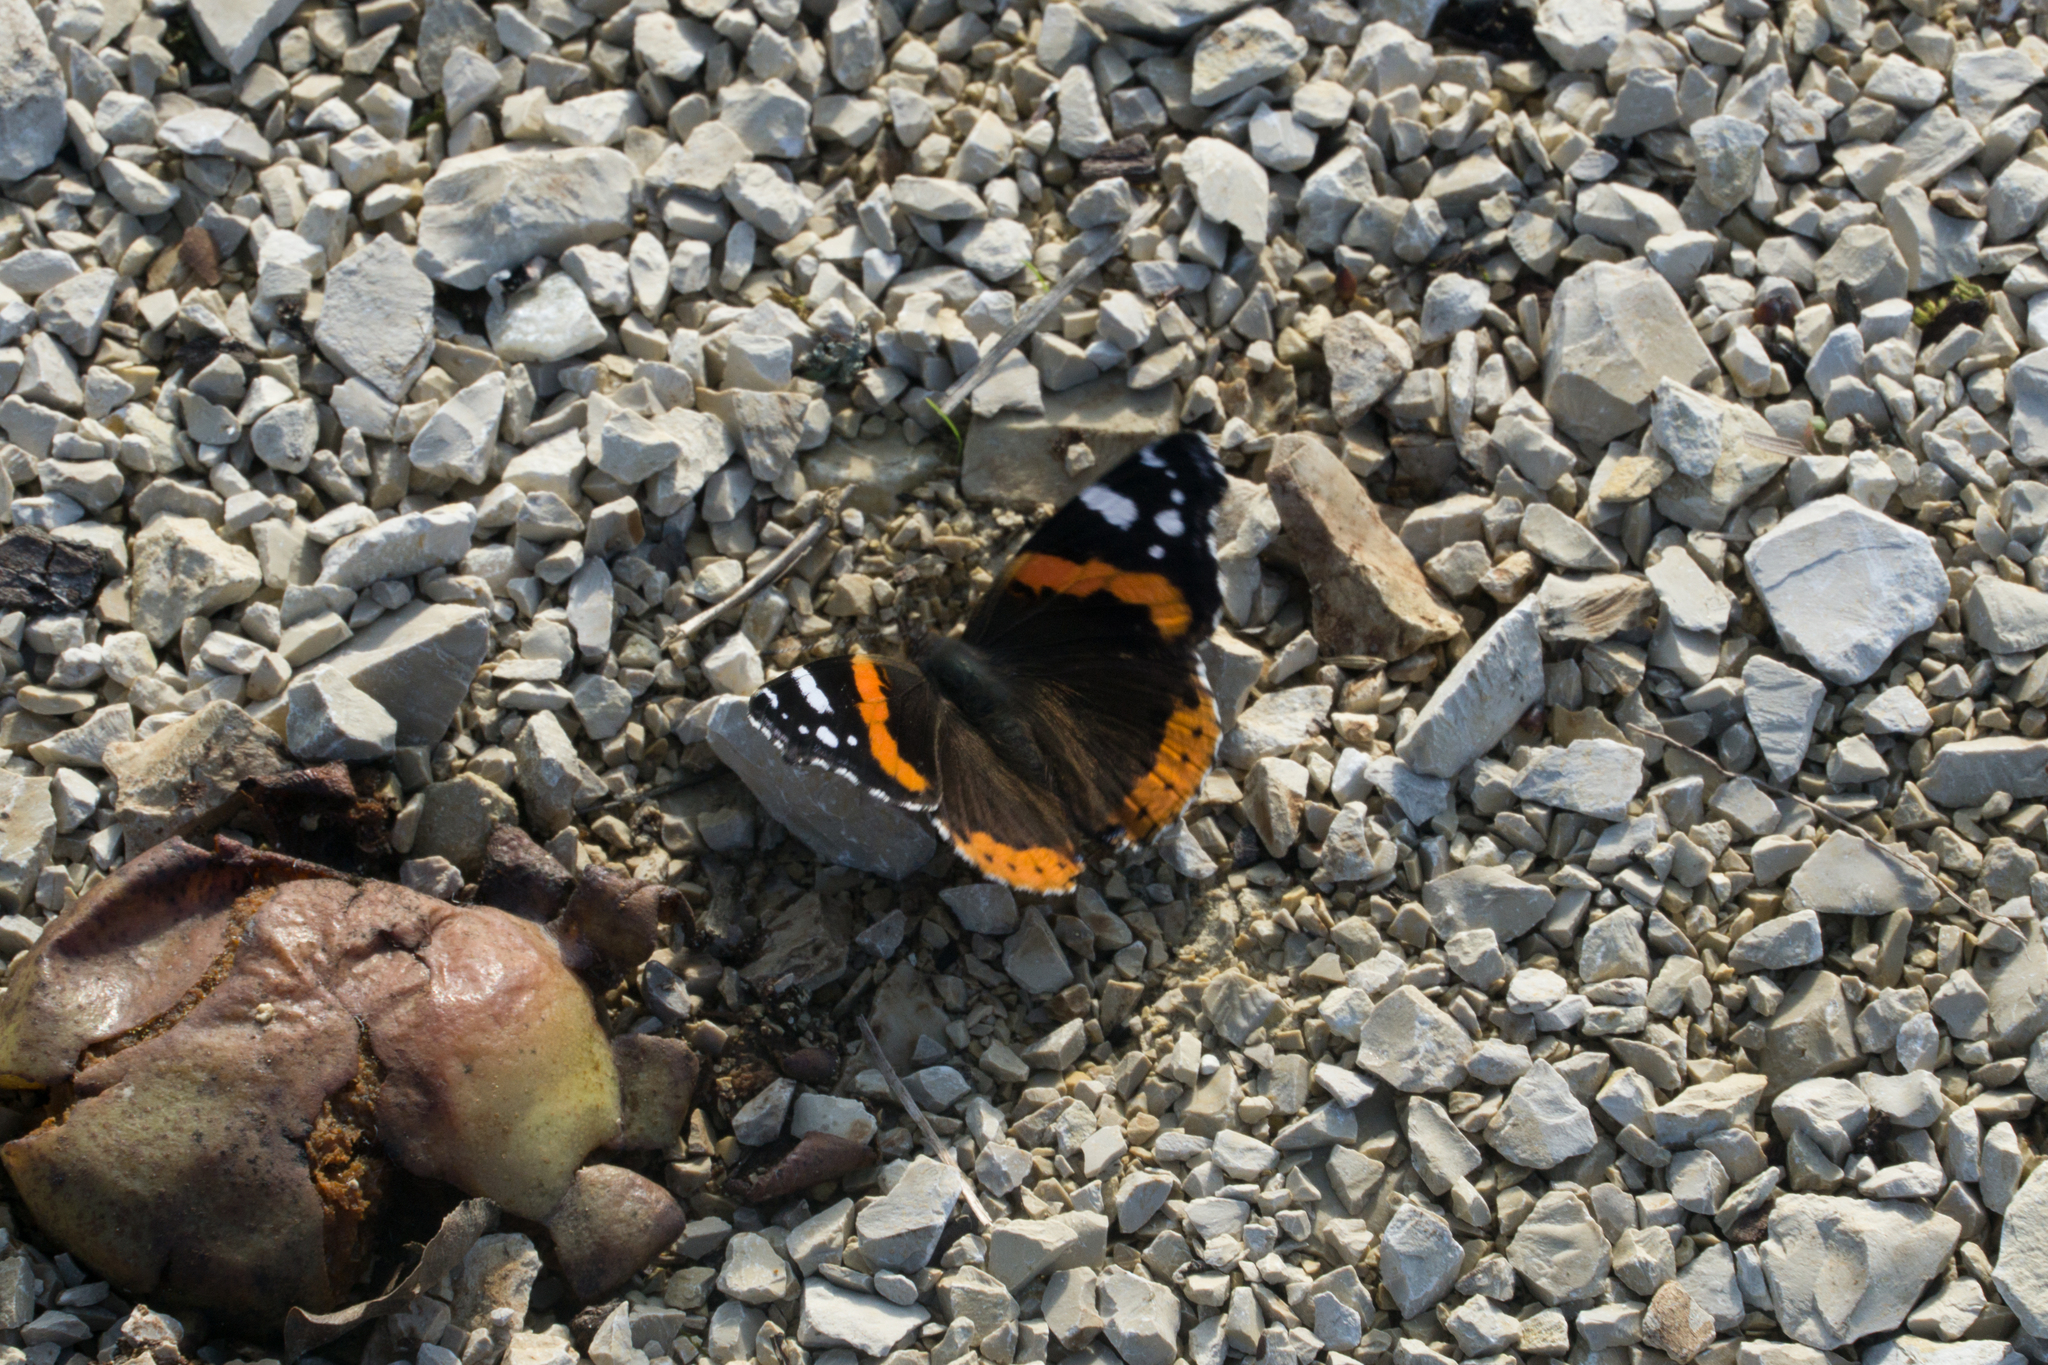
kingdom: Animalia
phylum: Arthropoda
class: Insecta
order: Lepidoptera
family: Nymphalidae
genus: Vanessa
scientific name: Vanessa atalanta
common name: Red admiral
